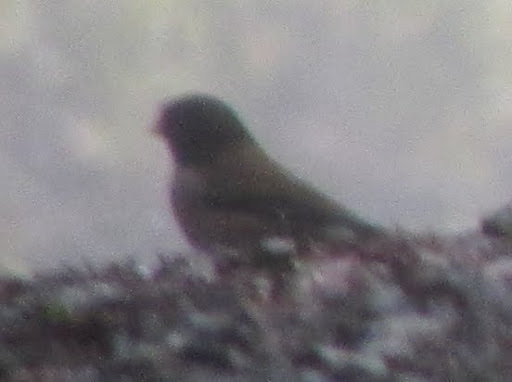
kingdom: Animalia
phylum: Chordata
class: Aves
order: Passeriformes
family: Passerellidae
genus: Junco
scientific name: Junco hyemalis
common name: Dark-eyed junco
